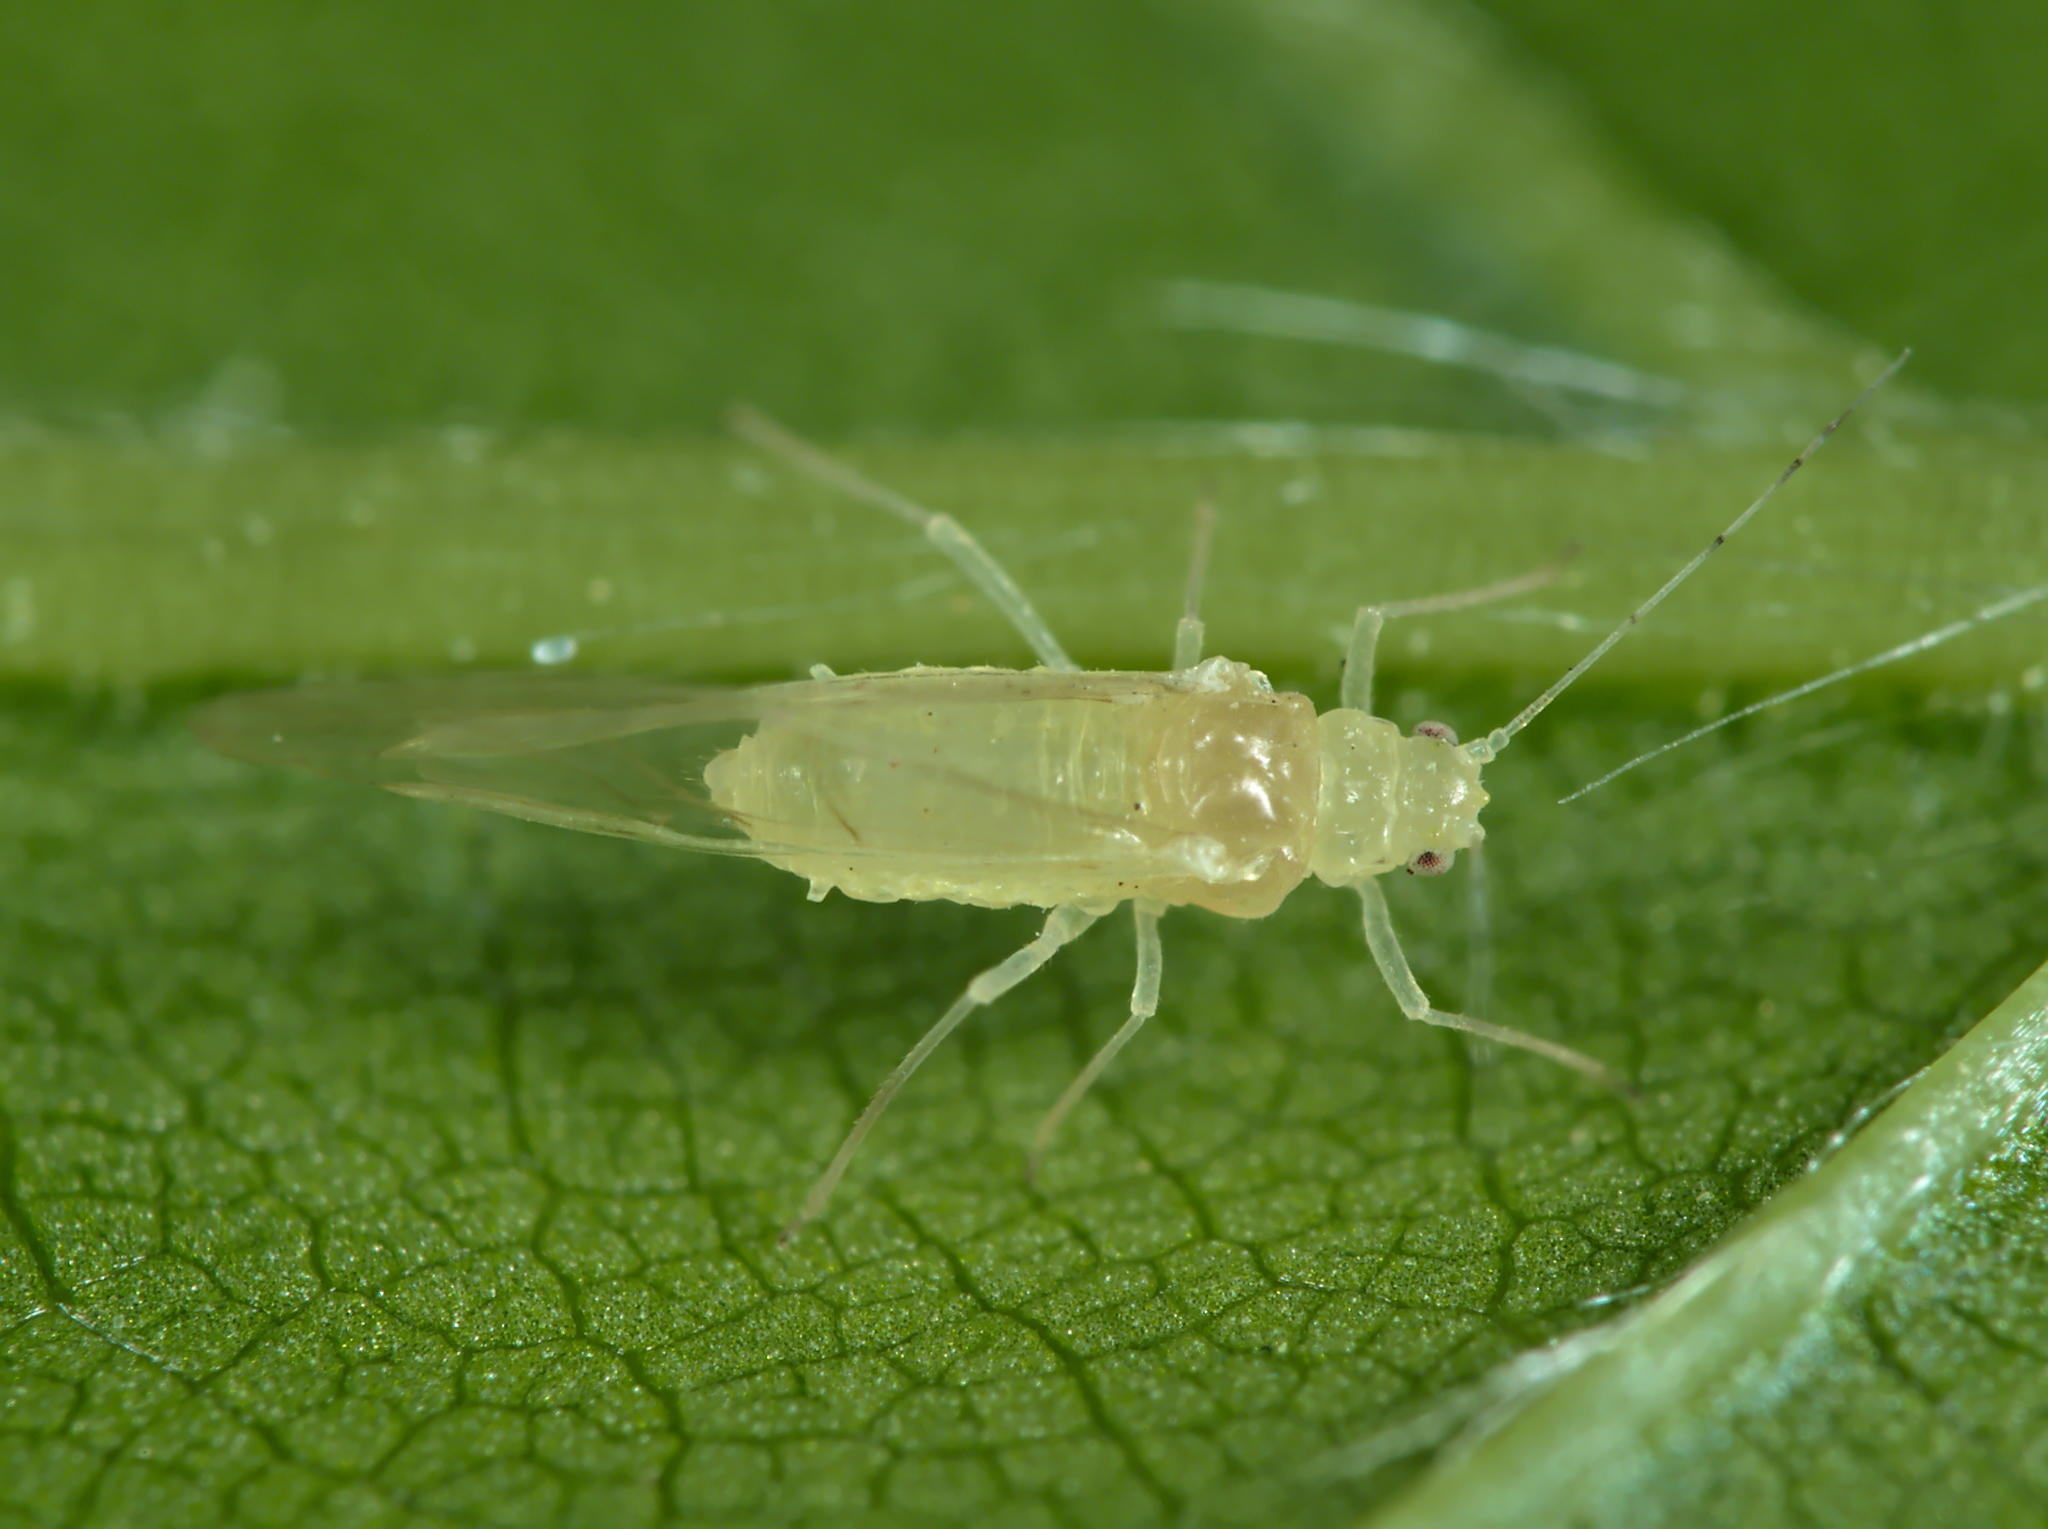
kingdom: Animalia
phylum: Arthropoda
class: Insecta
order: Hemiptera
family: Aphididae
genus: Myzocallis
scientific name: Myzocallis carpini
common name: Aphid
